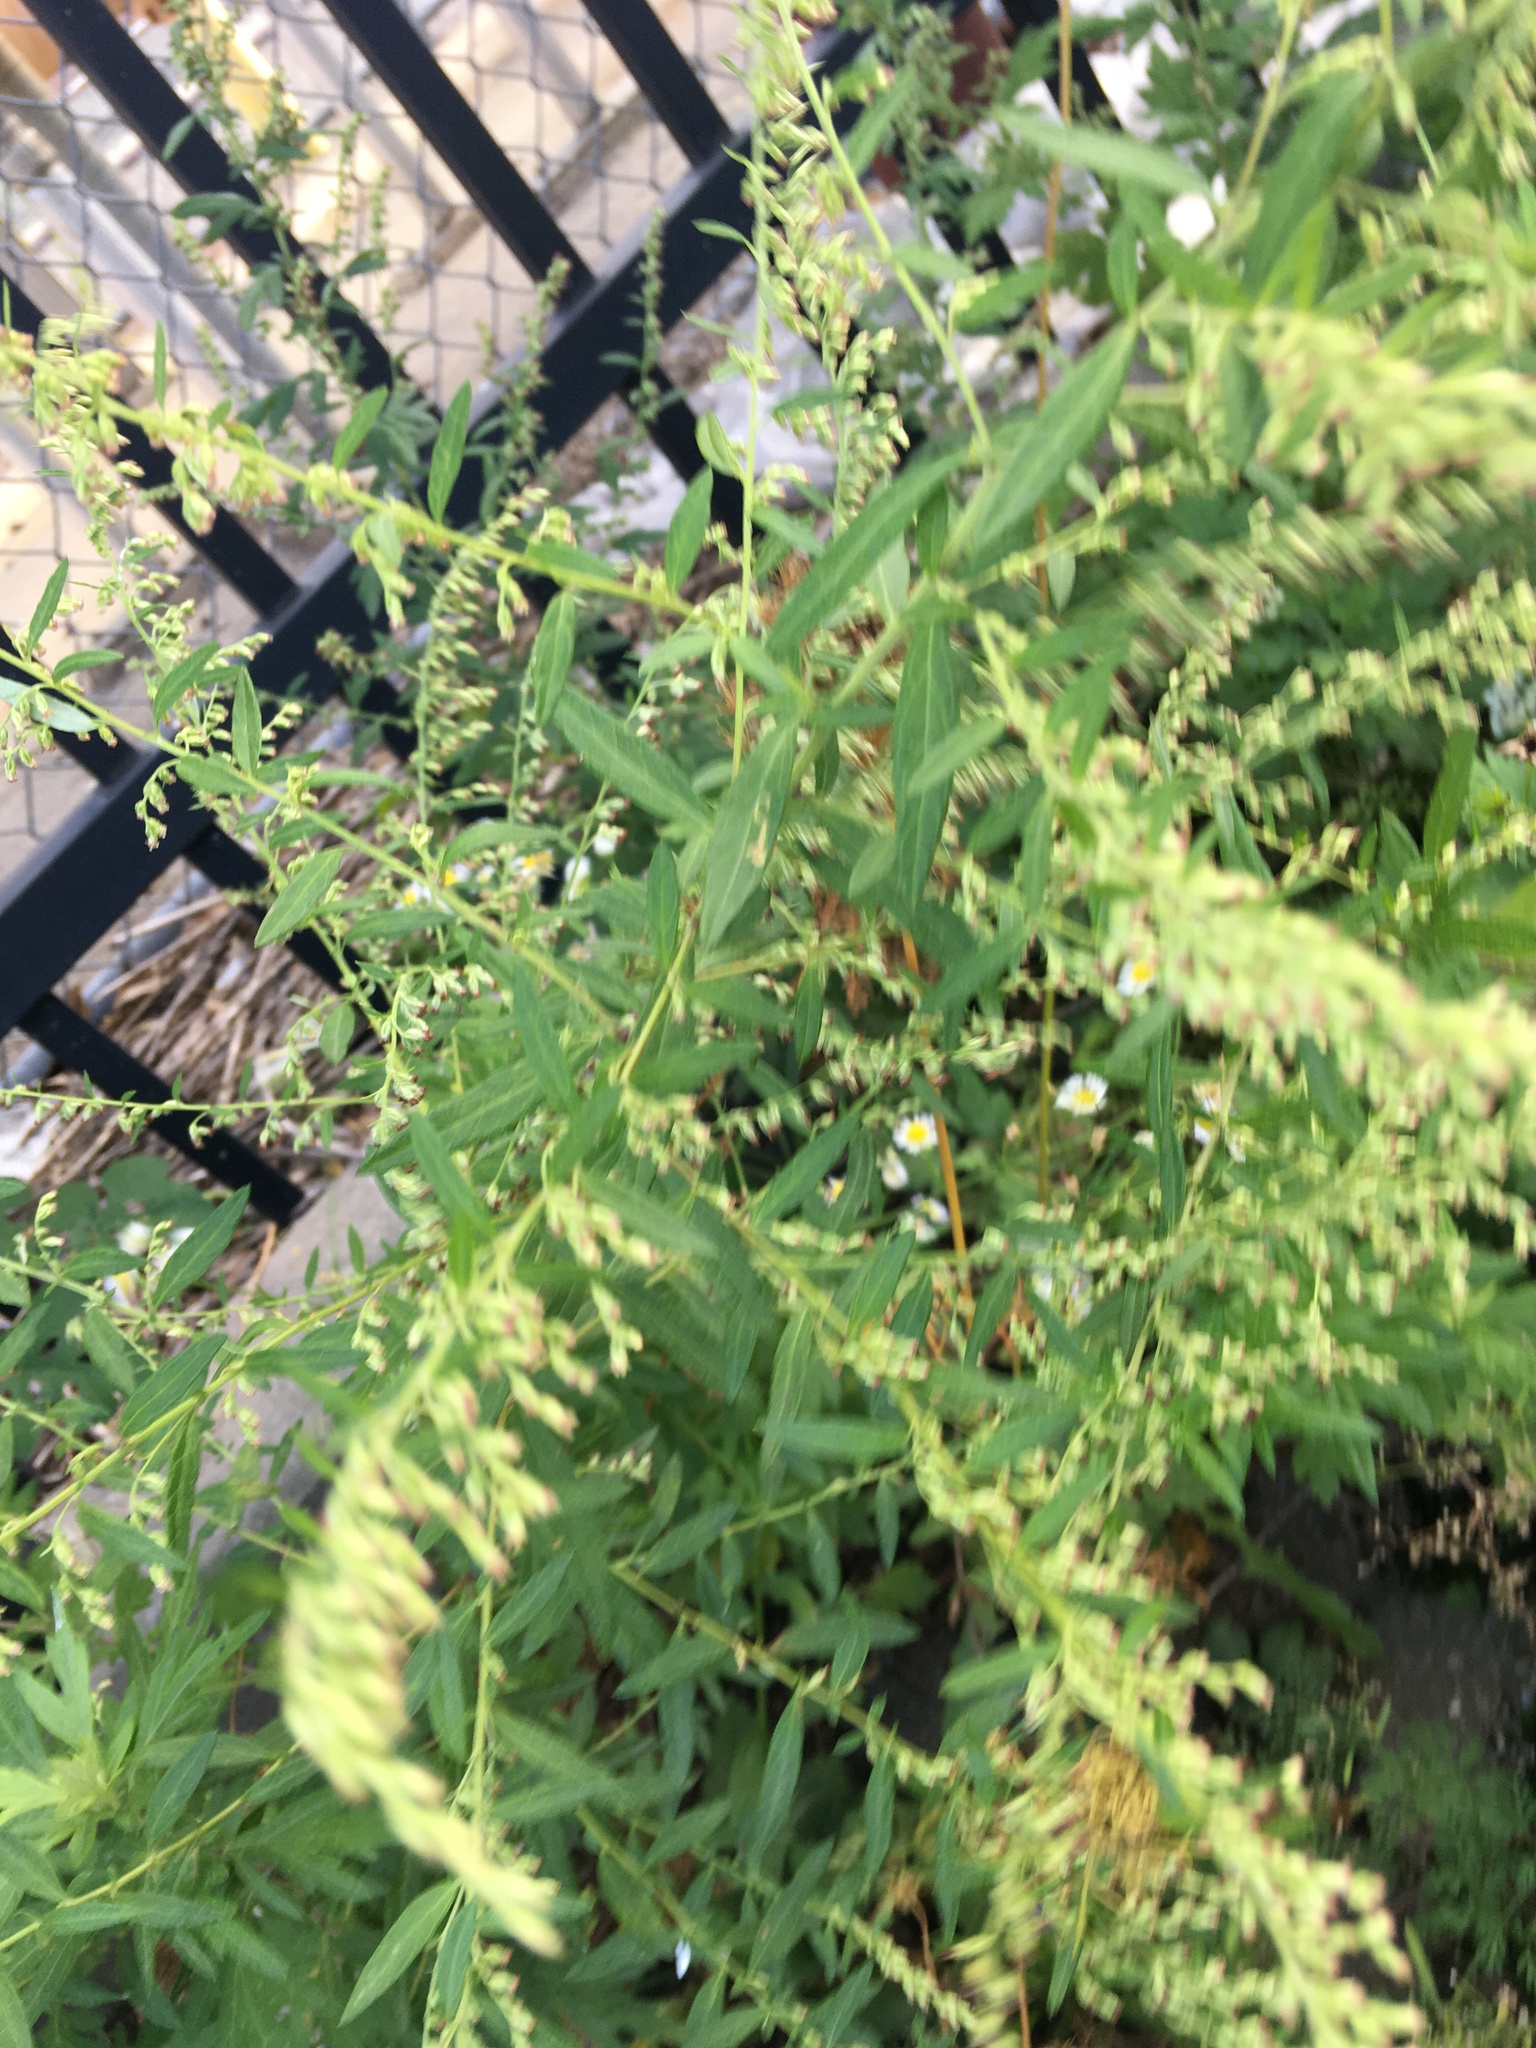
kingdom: Plantae
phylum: Tracheophyta
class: Magnoliopsida
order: Asterales
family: Asteraceae
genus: Artemisia
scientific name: Artemisia vulgaris
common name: Mugwort
